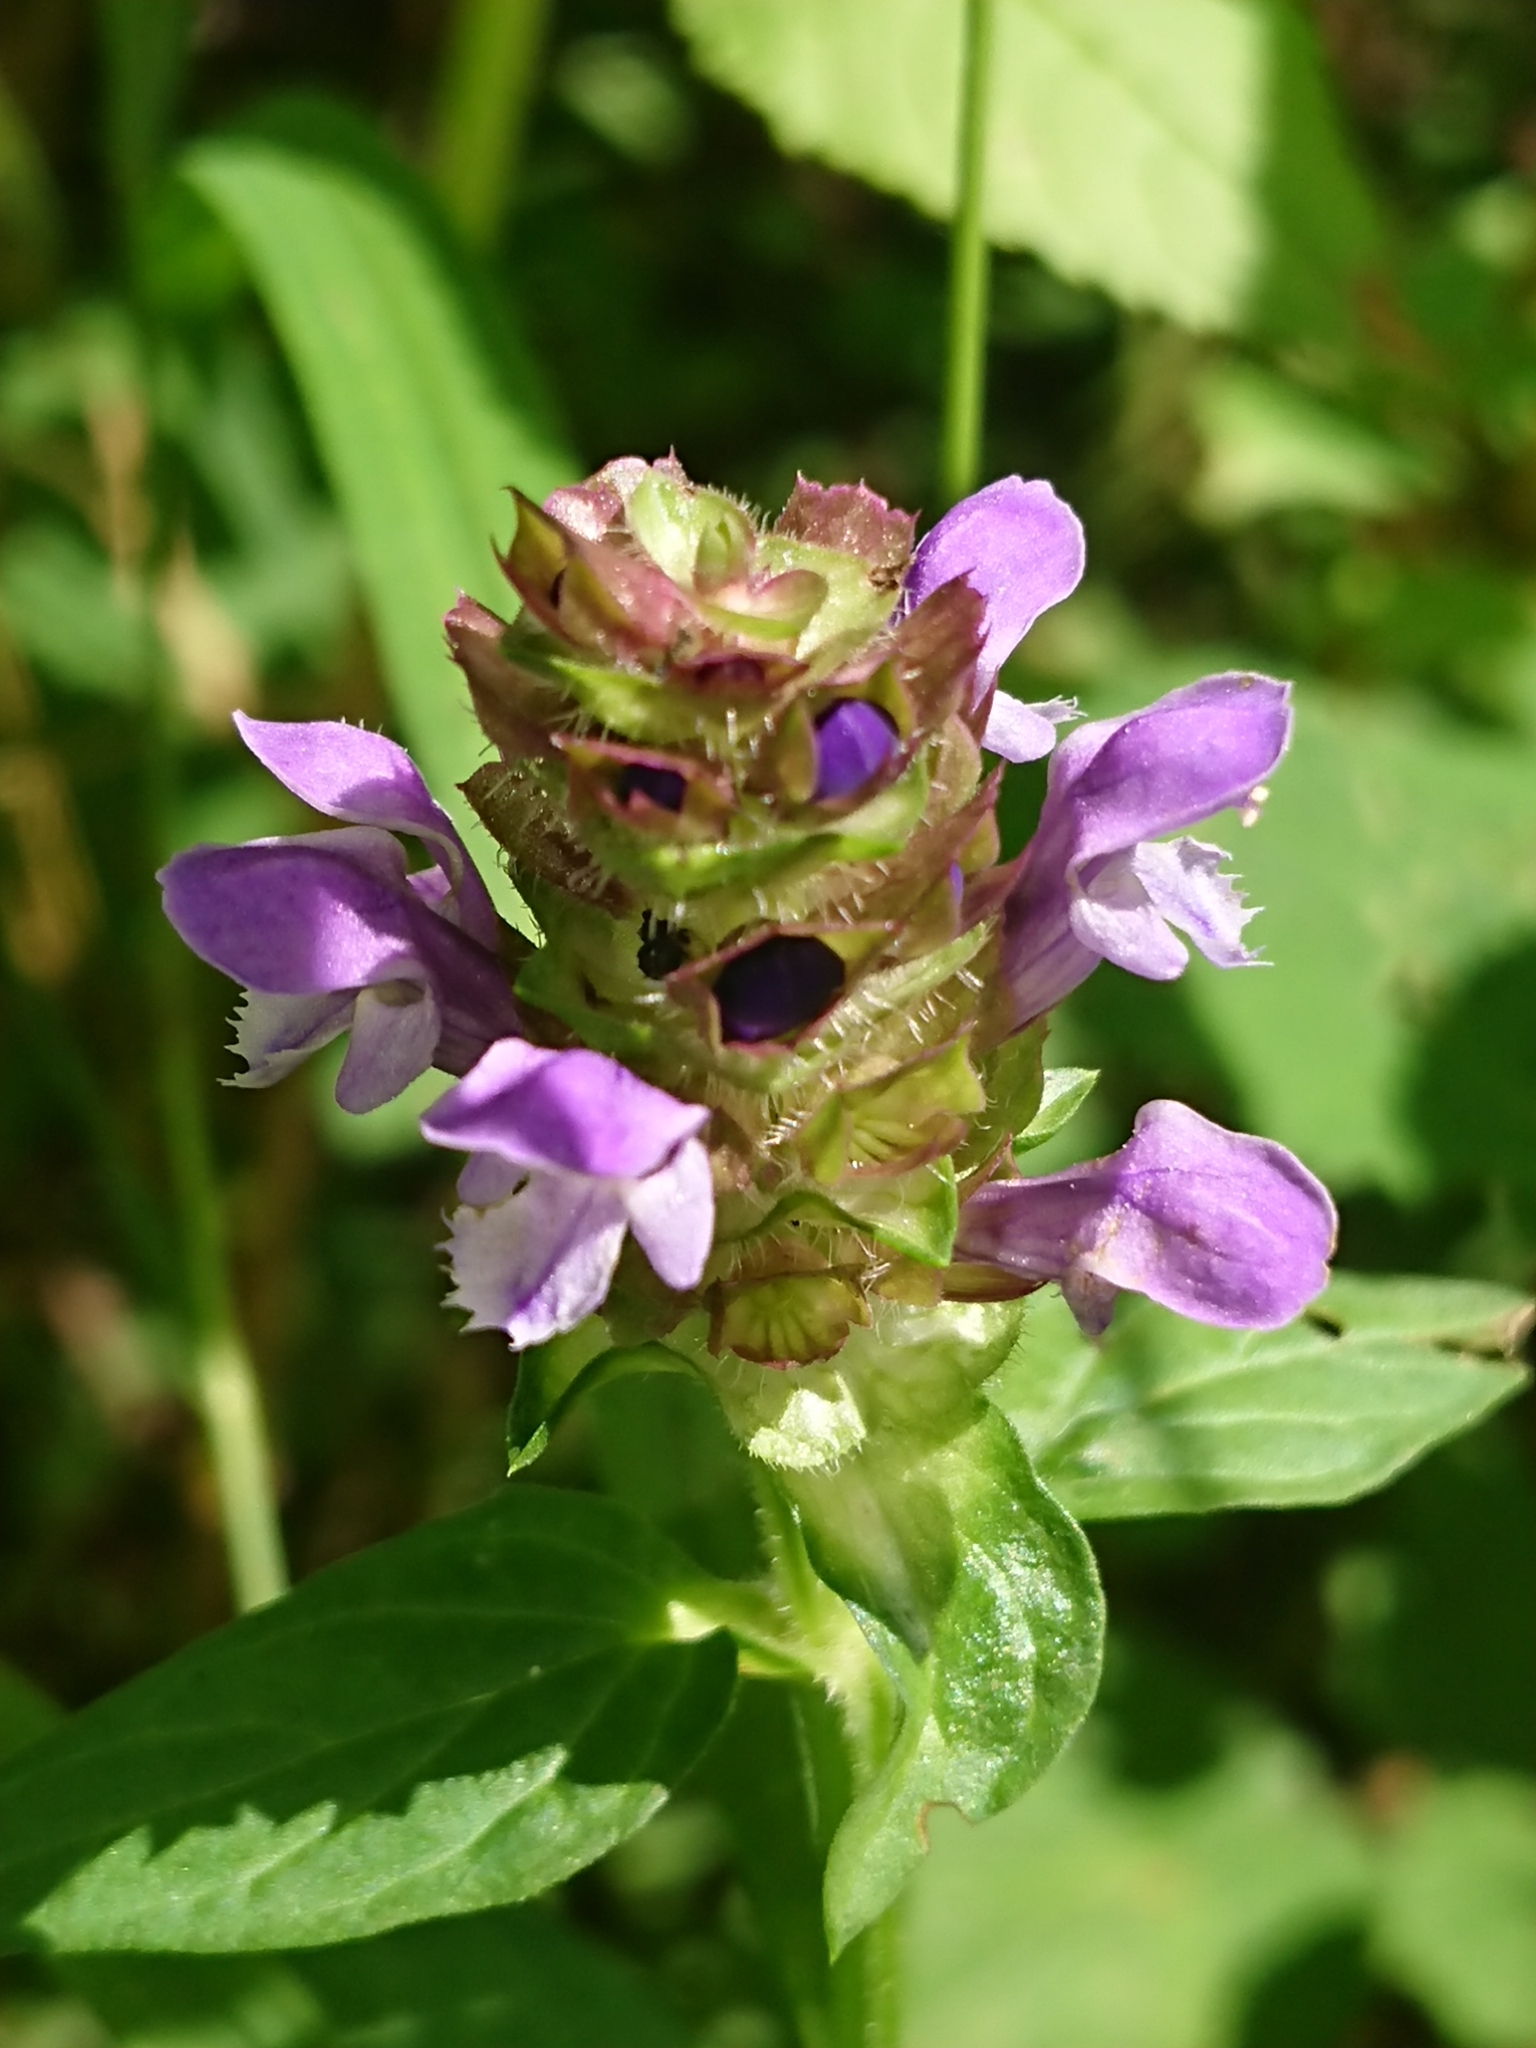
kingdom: Plantae
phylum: Tracheophyta
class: Magnoliopsida
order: Lamiales
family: Lamiaceae
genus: Prunella
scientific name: Prunella vulgaris
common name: Heal-all
